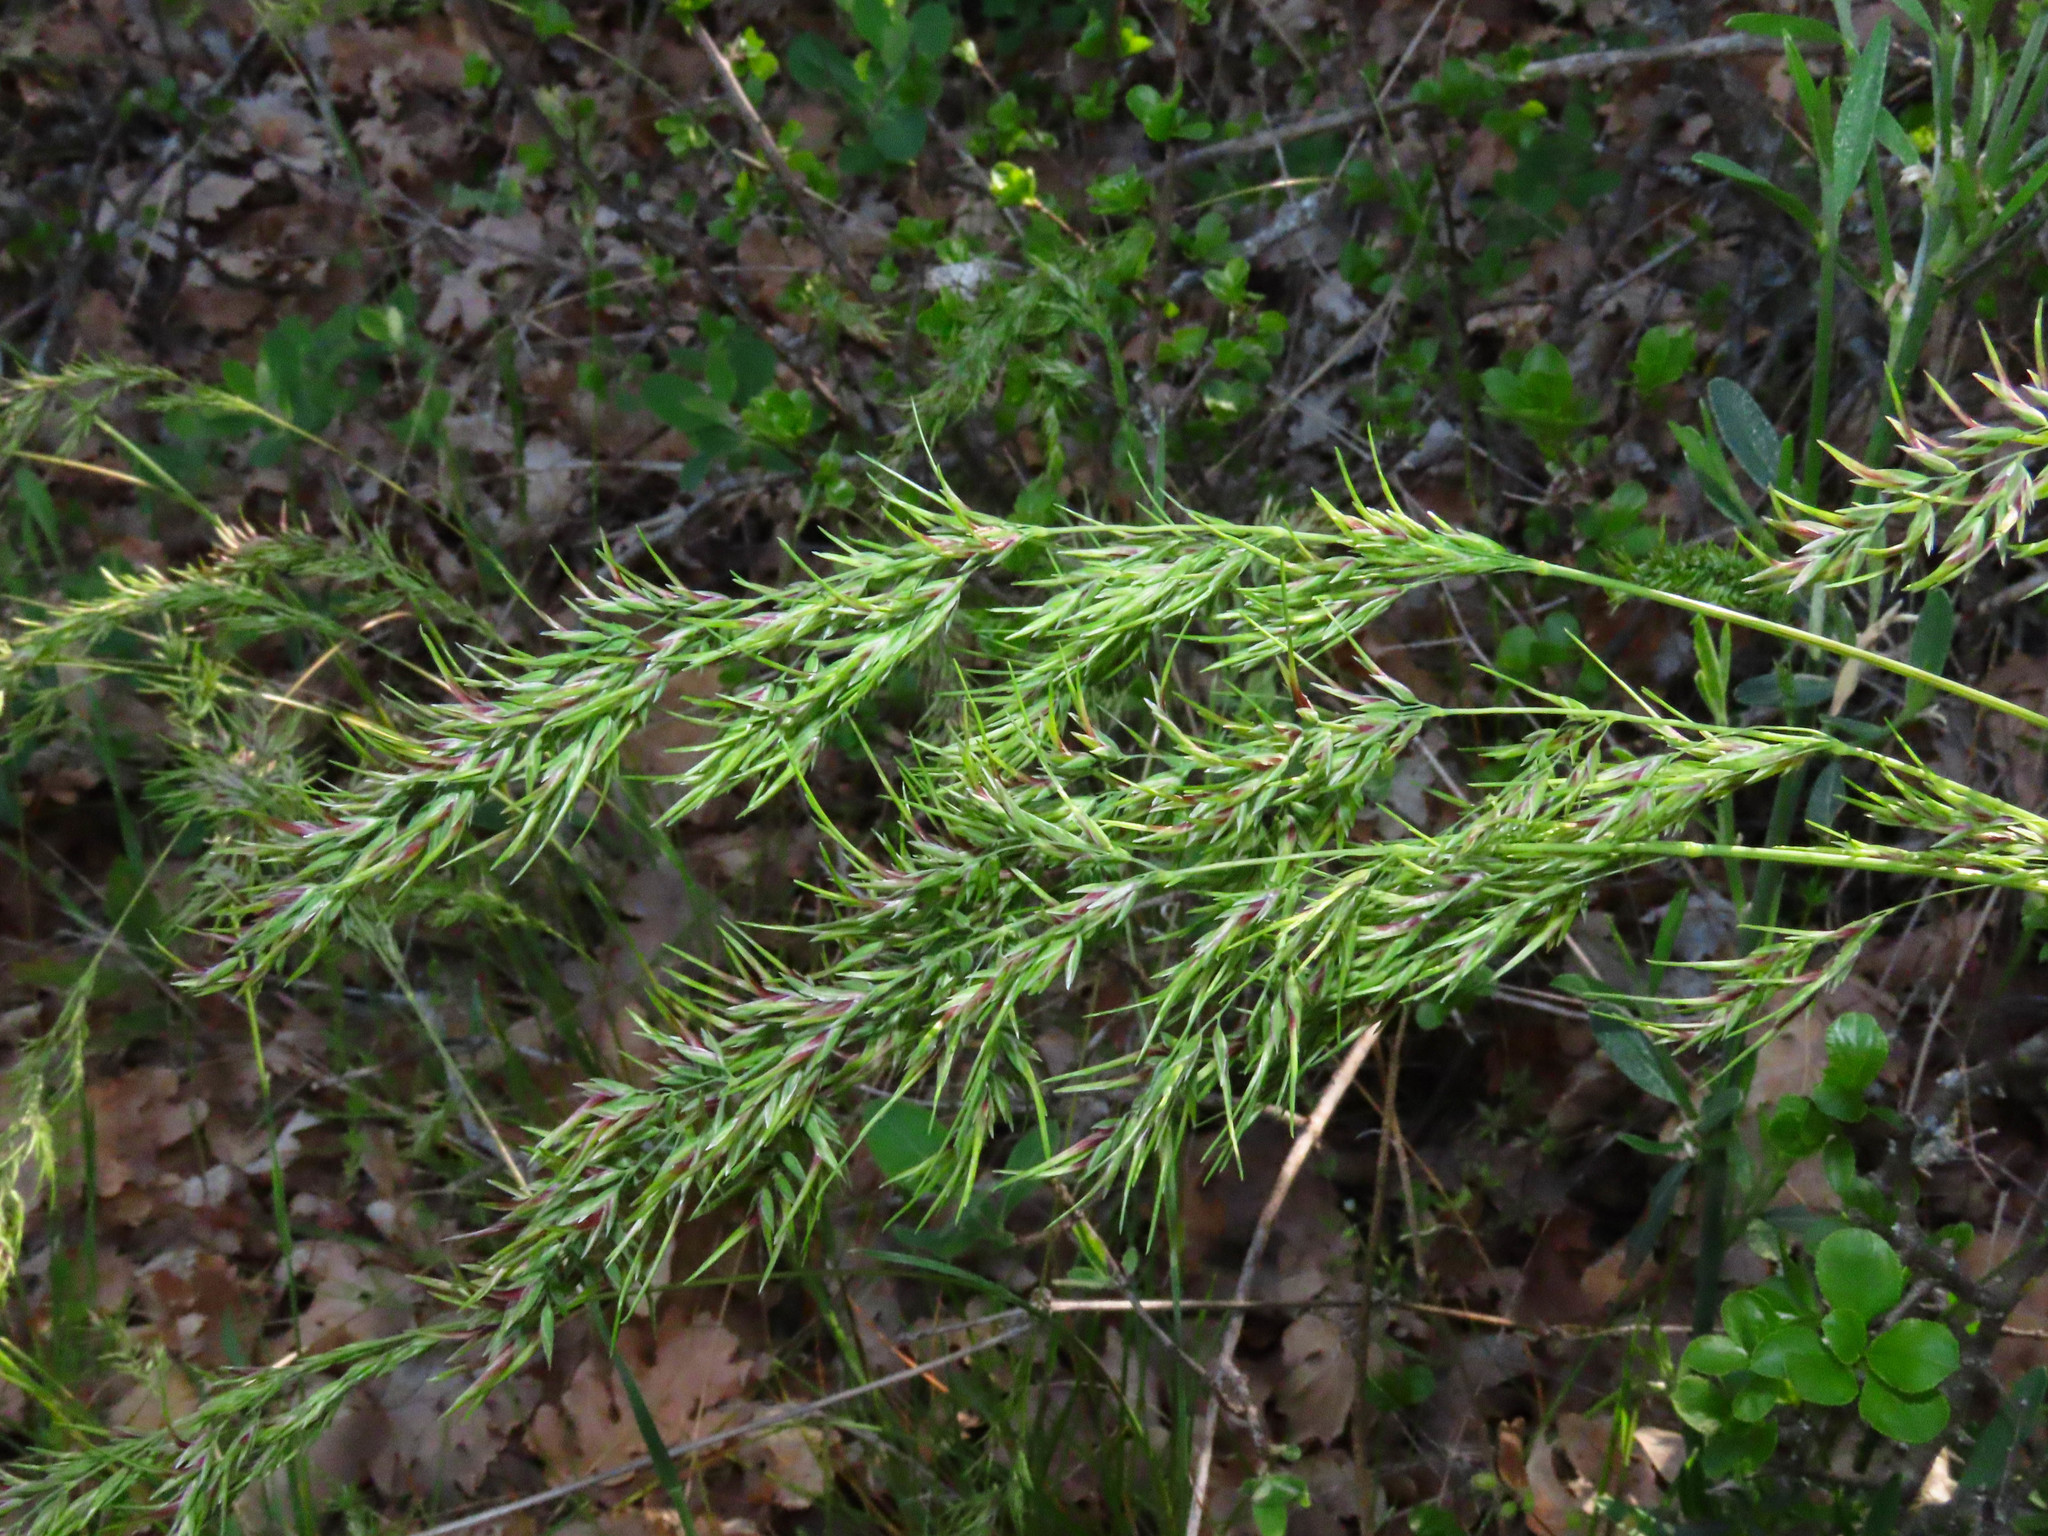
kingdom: Plantae
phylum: Tracheophyta
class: Liliopsida
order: Poales
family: Poaceae
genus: Poa
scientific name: Poa bulbosa
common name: Bulbous bluegrass
